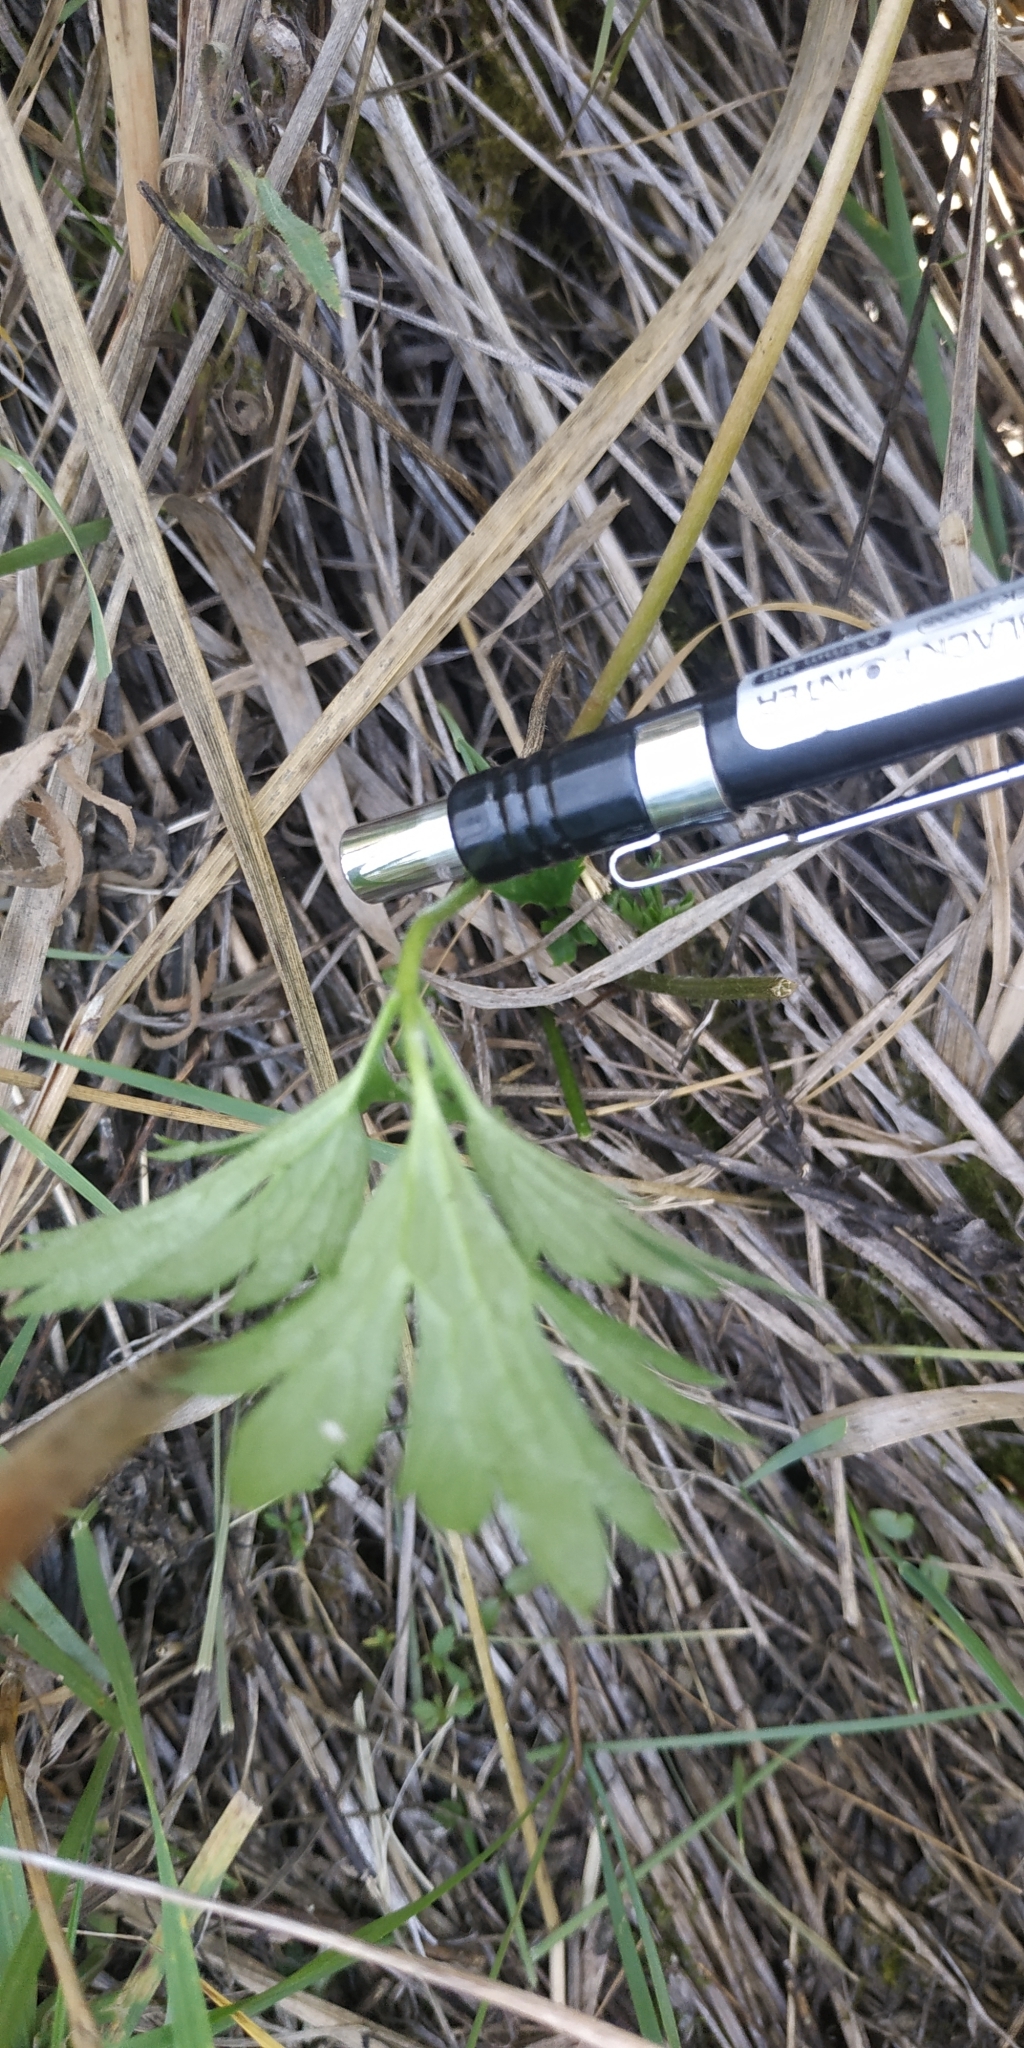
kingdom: Plantae
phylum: Tracheophyta
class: Magnoliopsida
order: Ranunculales
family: Ranunculaceae
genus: Ranunculus
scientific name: Ranunculus repens
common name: Creeping buttercup
